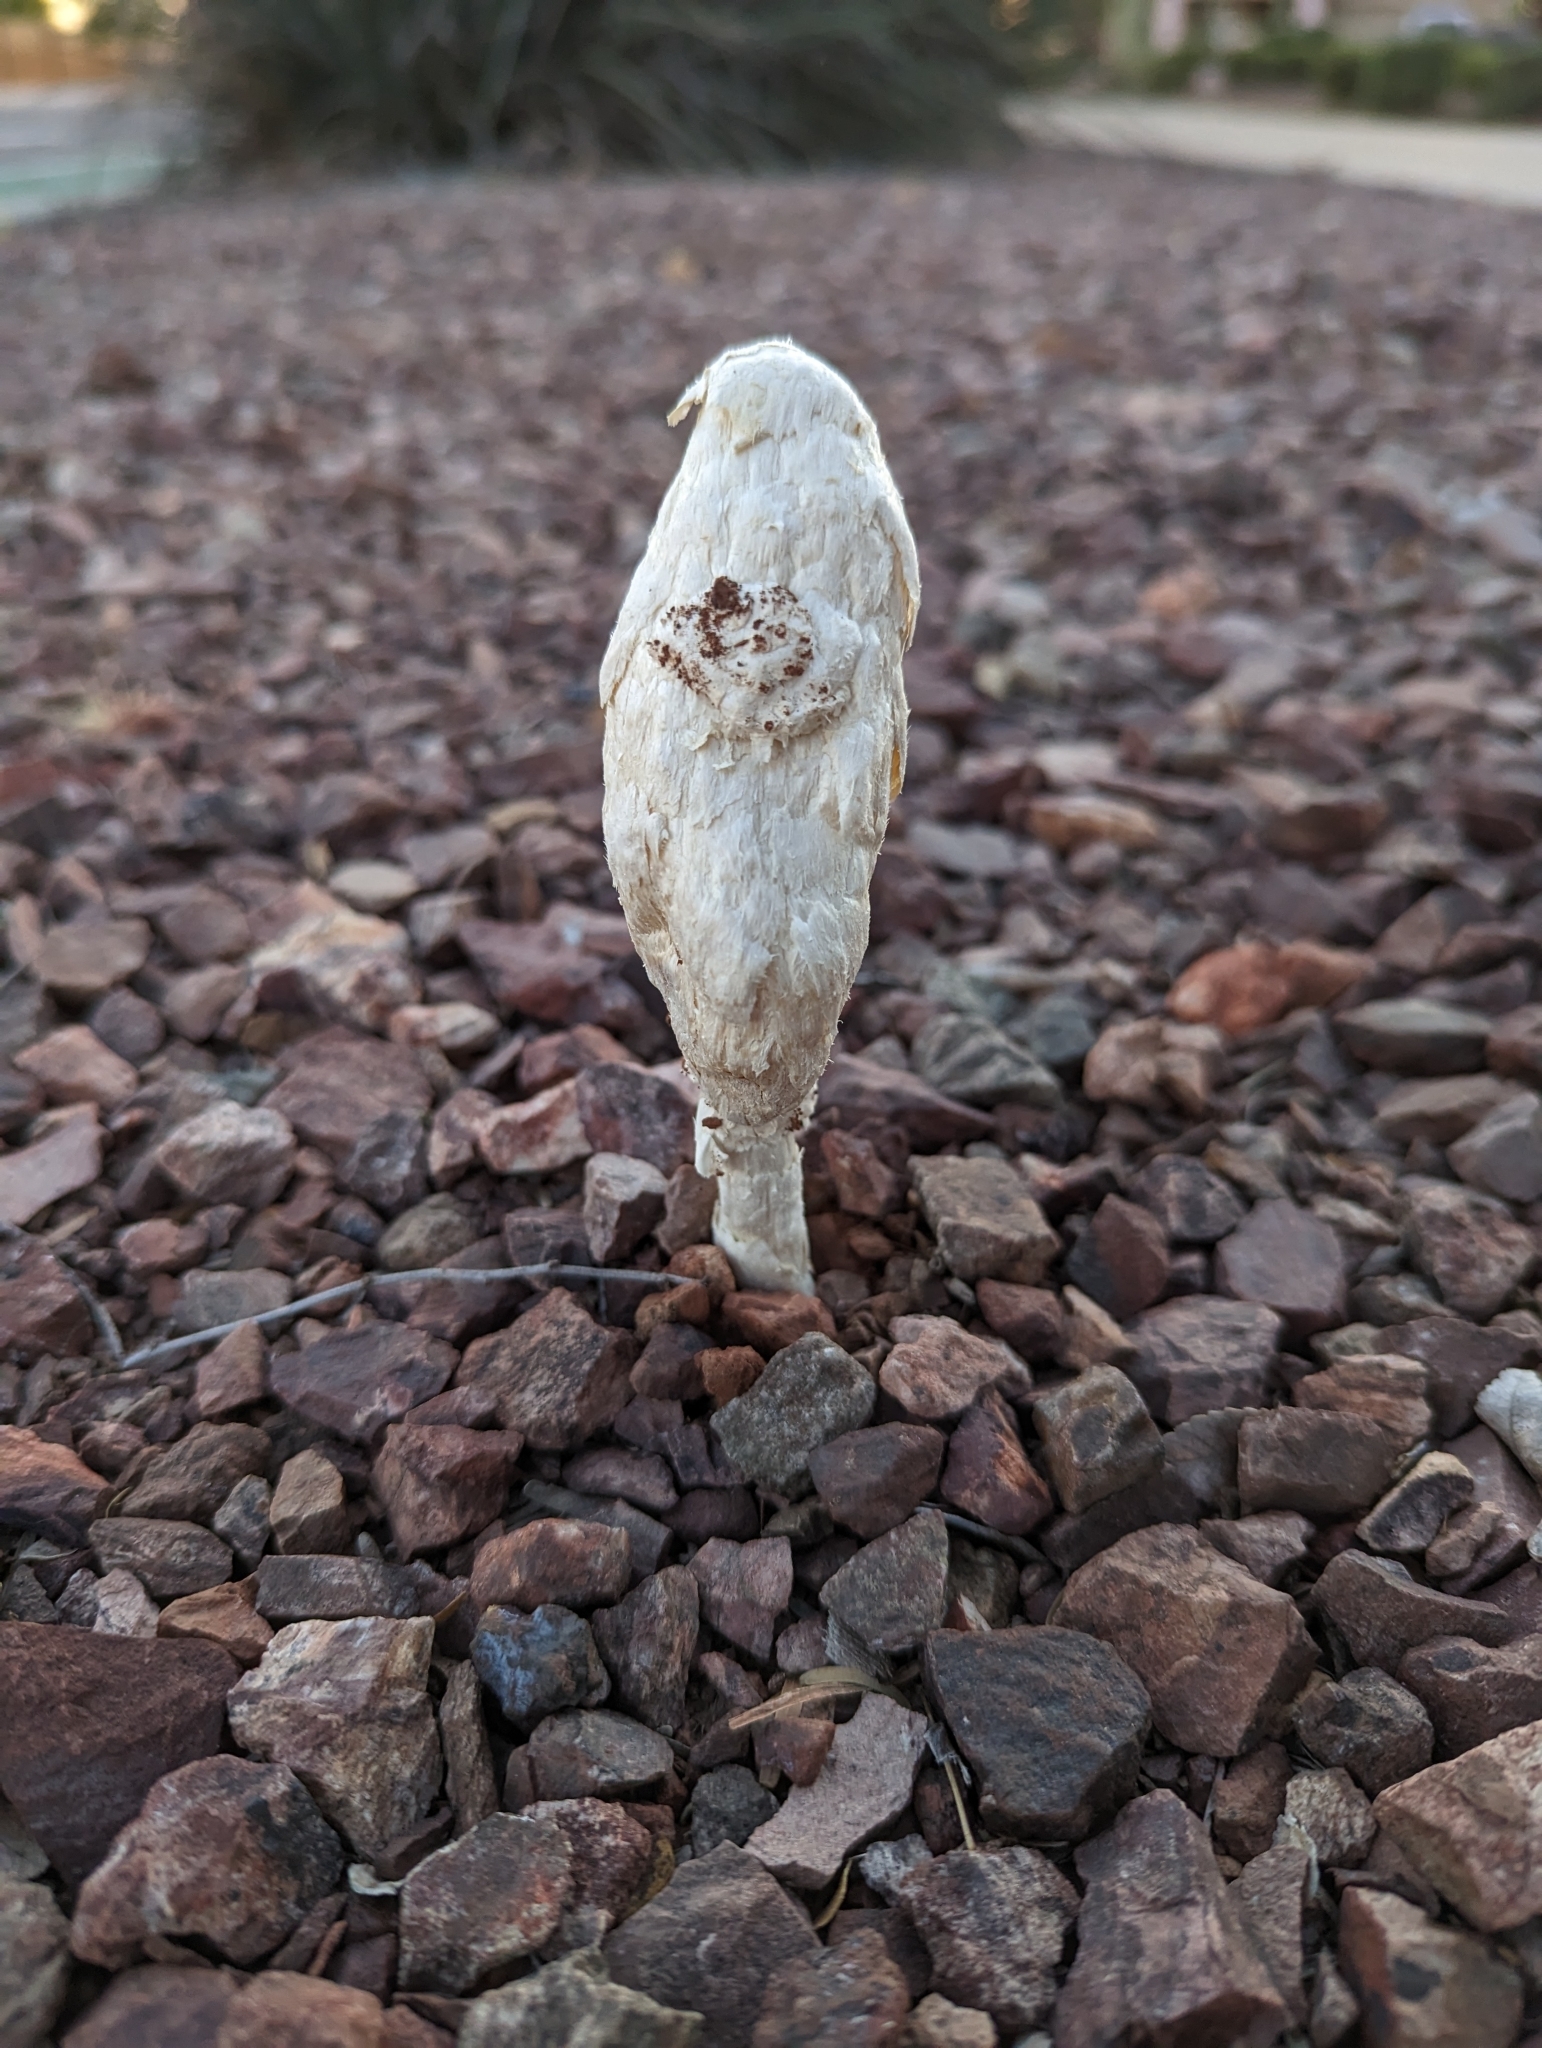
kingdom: Fungi
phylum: Basidiomycota
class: Agaricomycetes
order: Agaricales
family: Agaricaceae
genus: Podaxis
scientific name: Podaxis pistillaris
